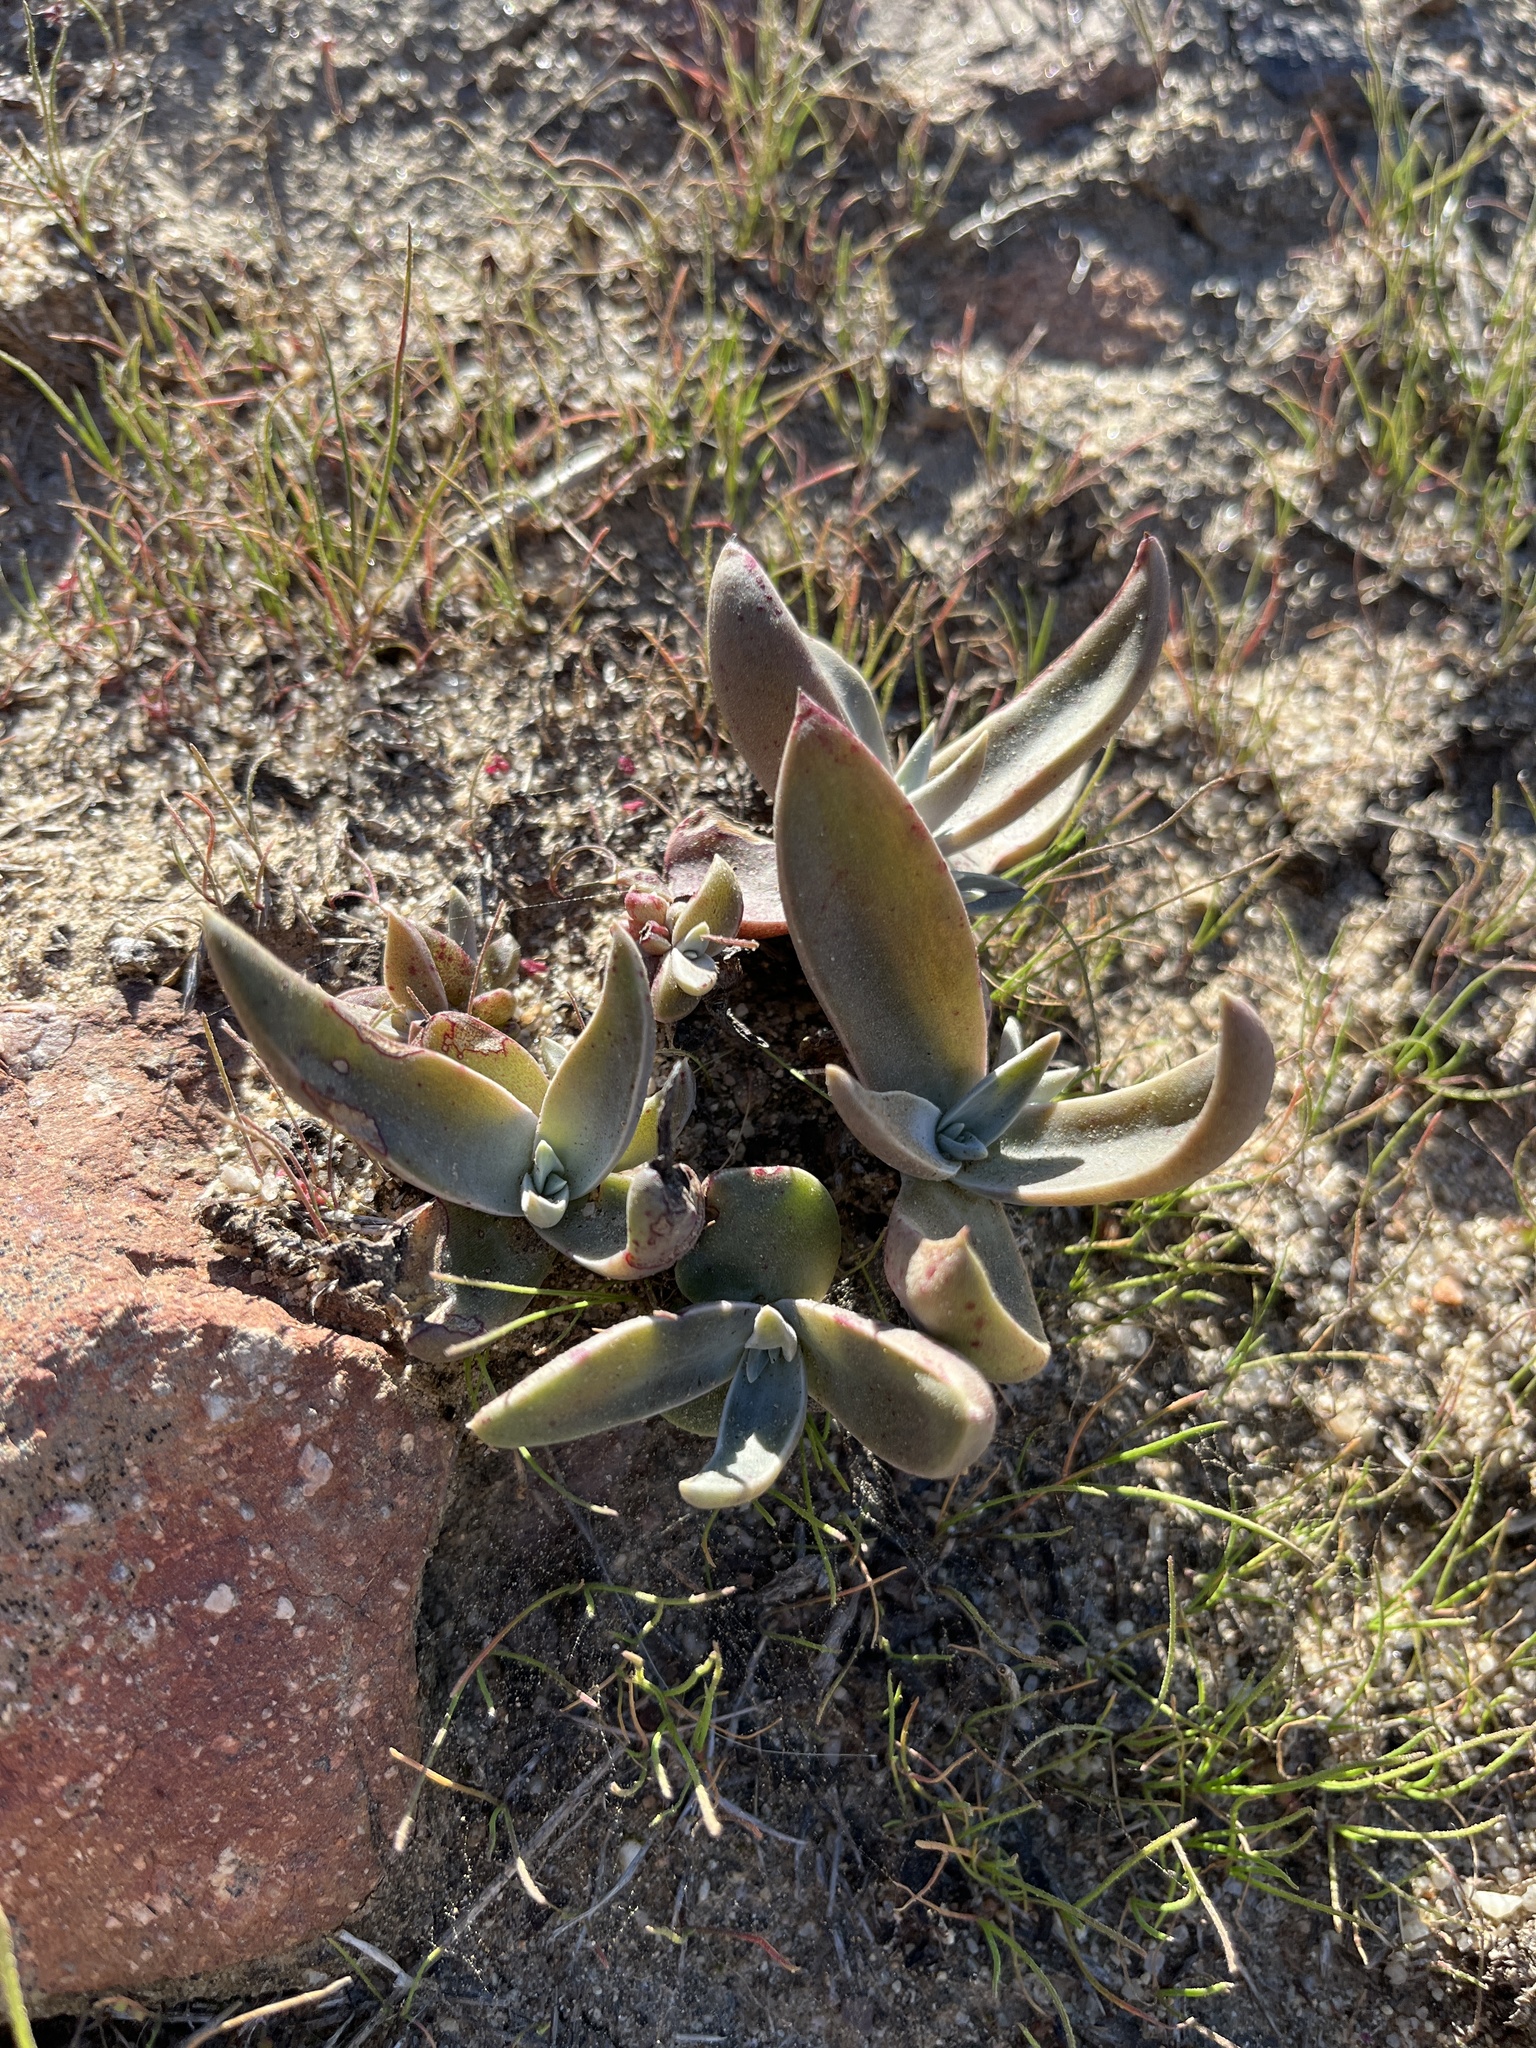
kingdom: Plantae
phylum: Tracheophyta
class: Magnoliopsida
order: Saxifragales
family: Crassulaceae
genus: Dudleya
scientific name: Dudleya lanceolata
